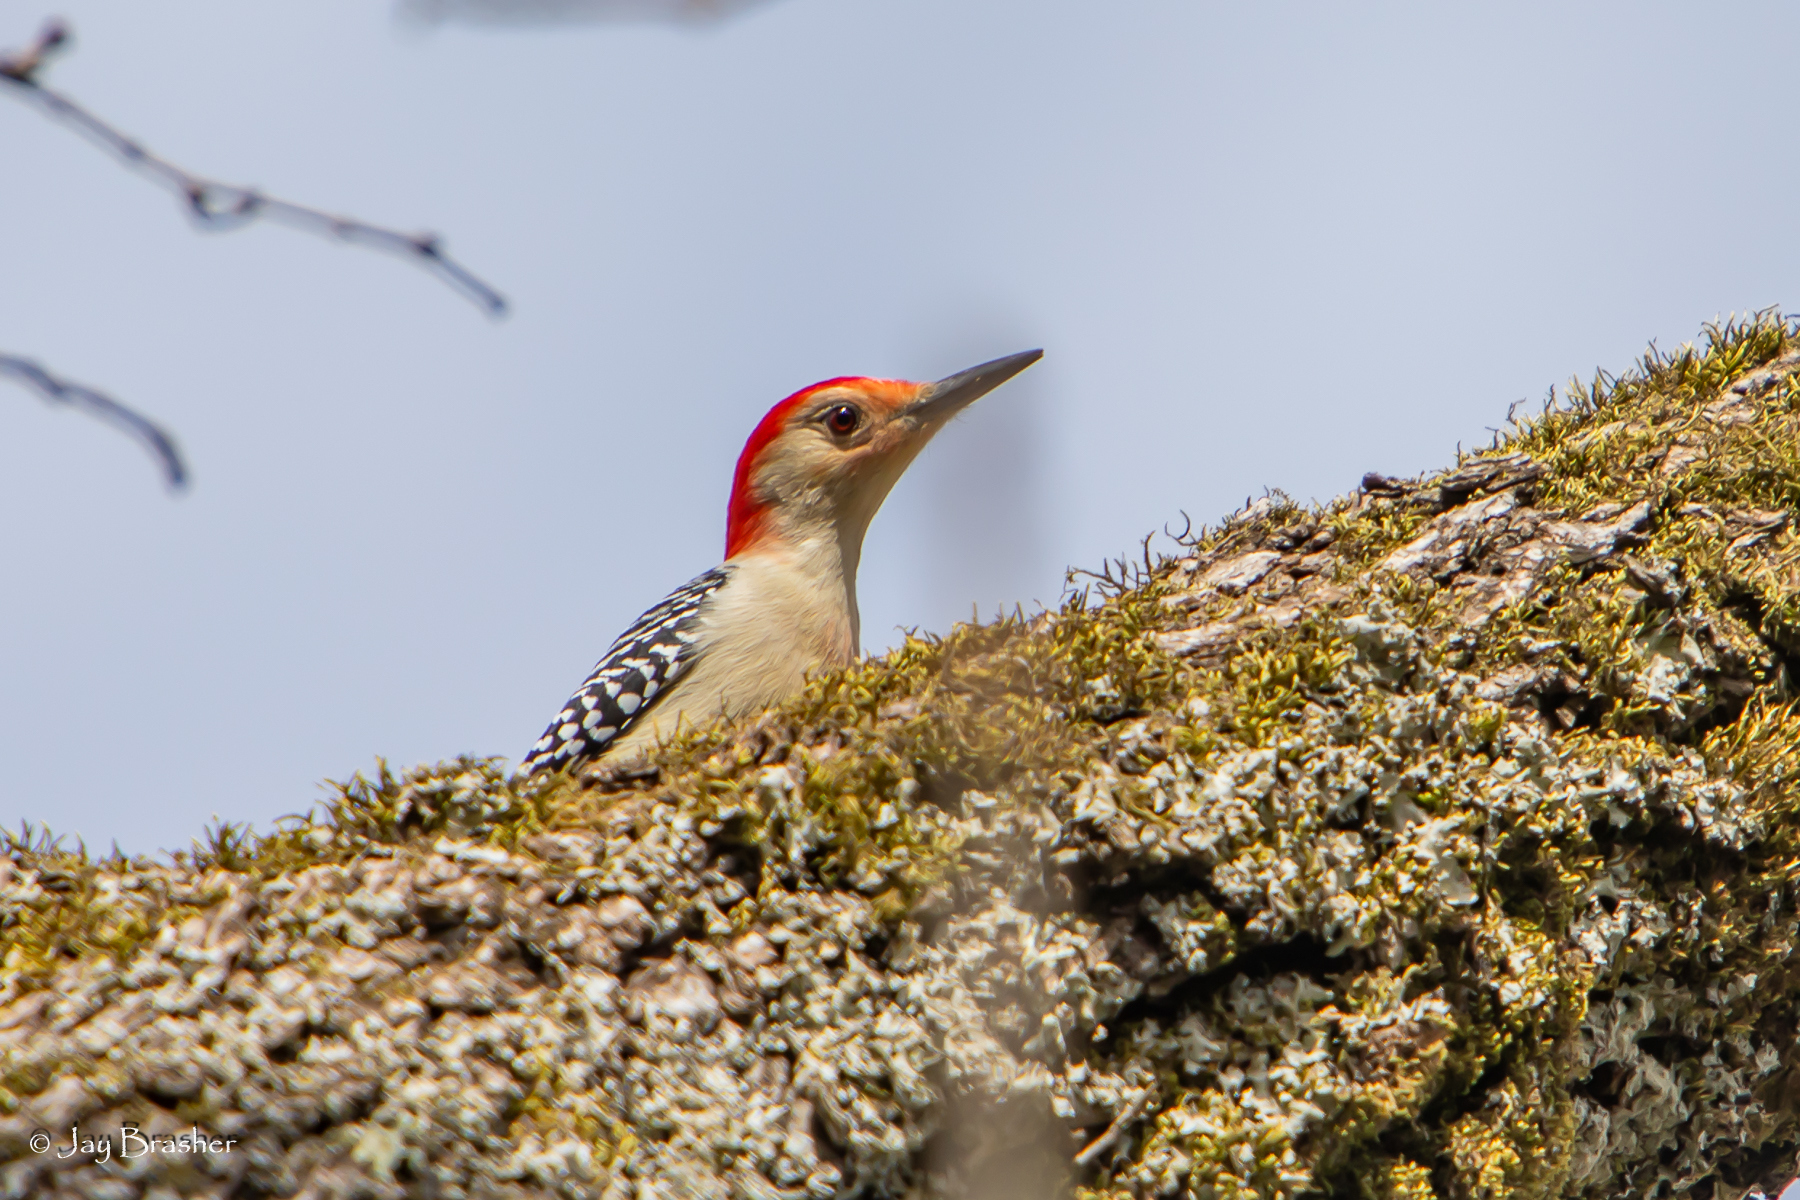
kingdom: Animalia
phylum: Chordata
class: Aves
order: Piciformes
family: Picidae
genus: Melanerpes
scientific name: Melanerpes carolinus
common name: Red-bellied woodpecker
